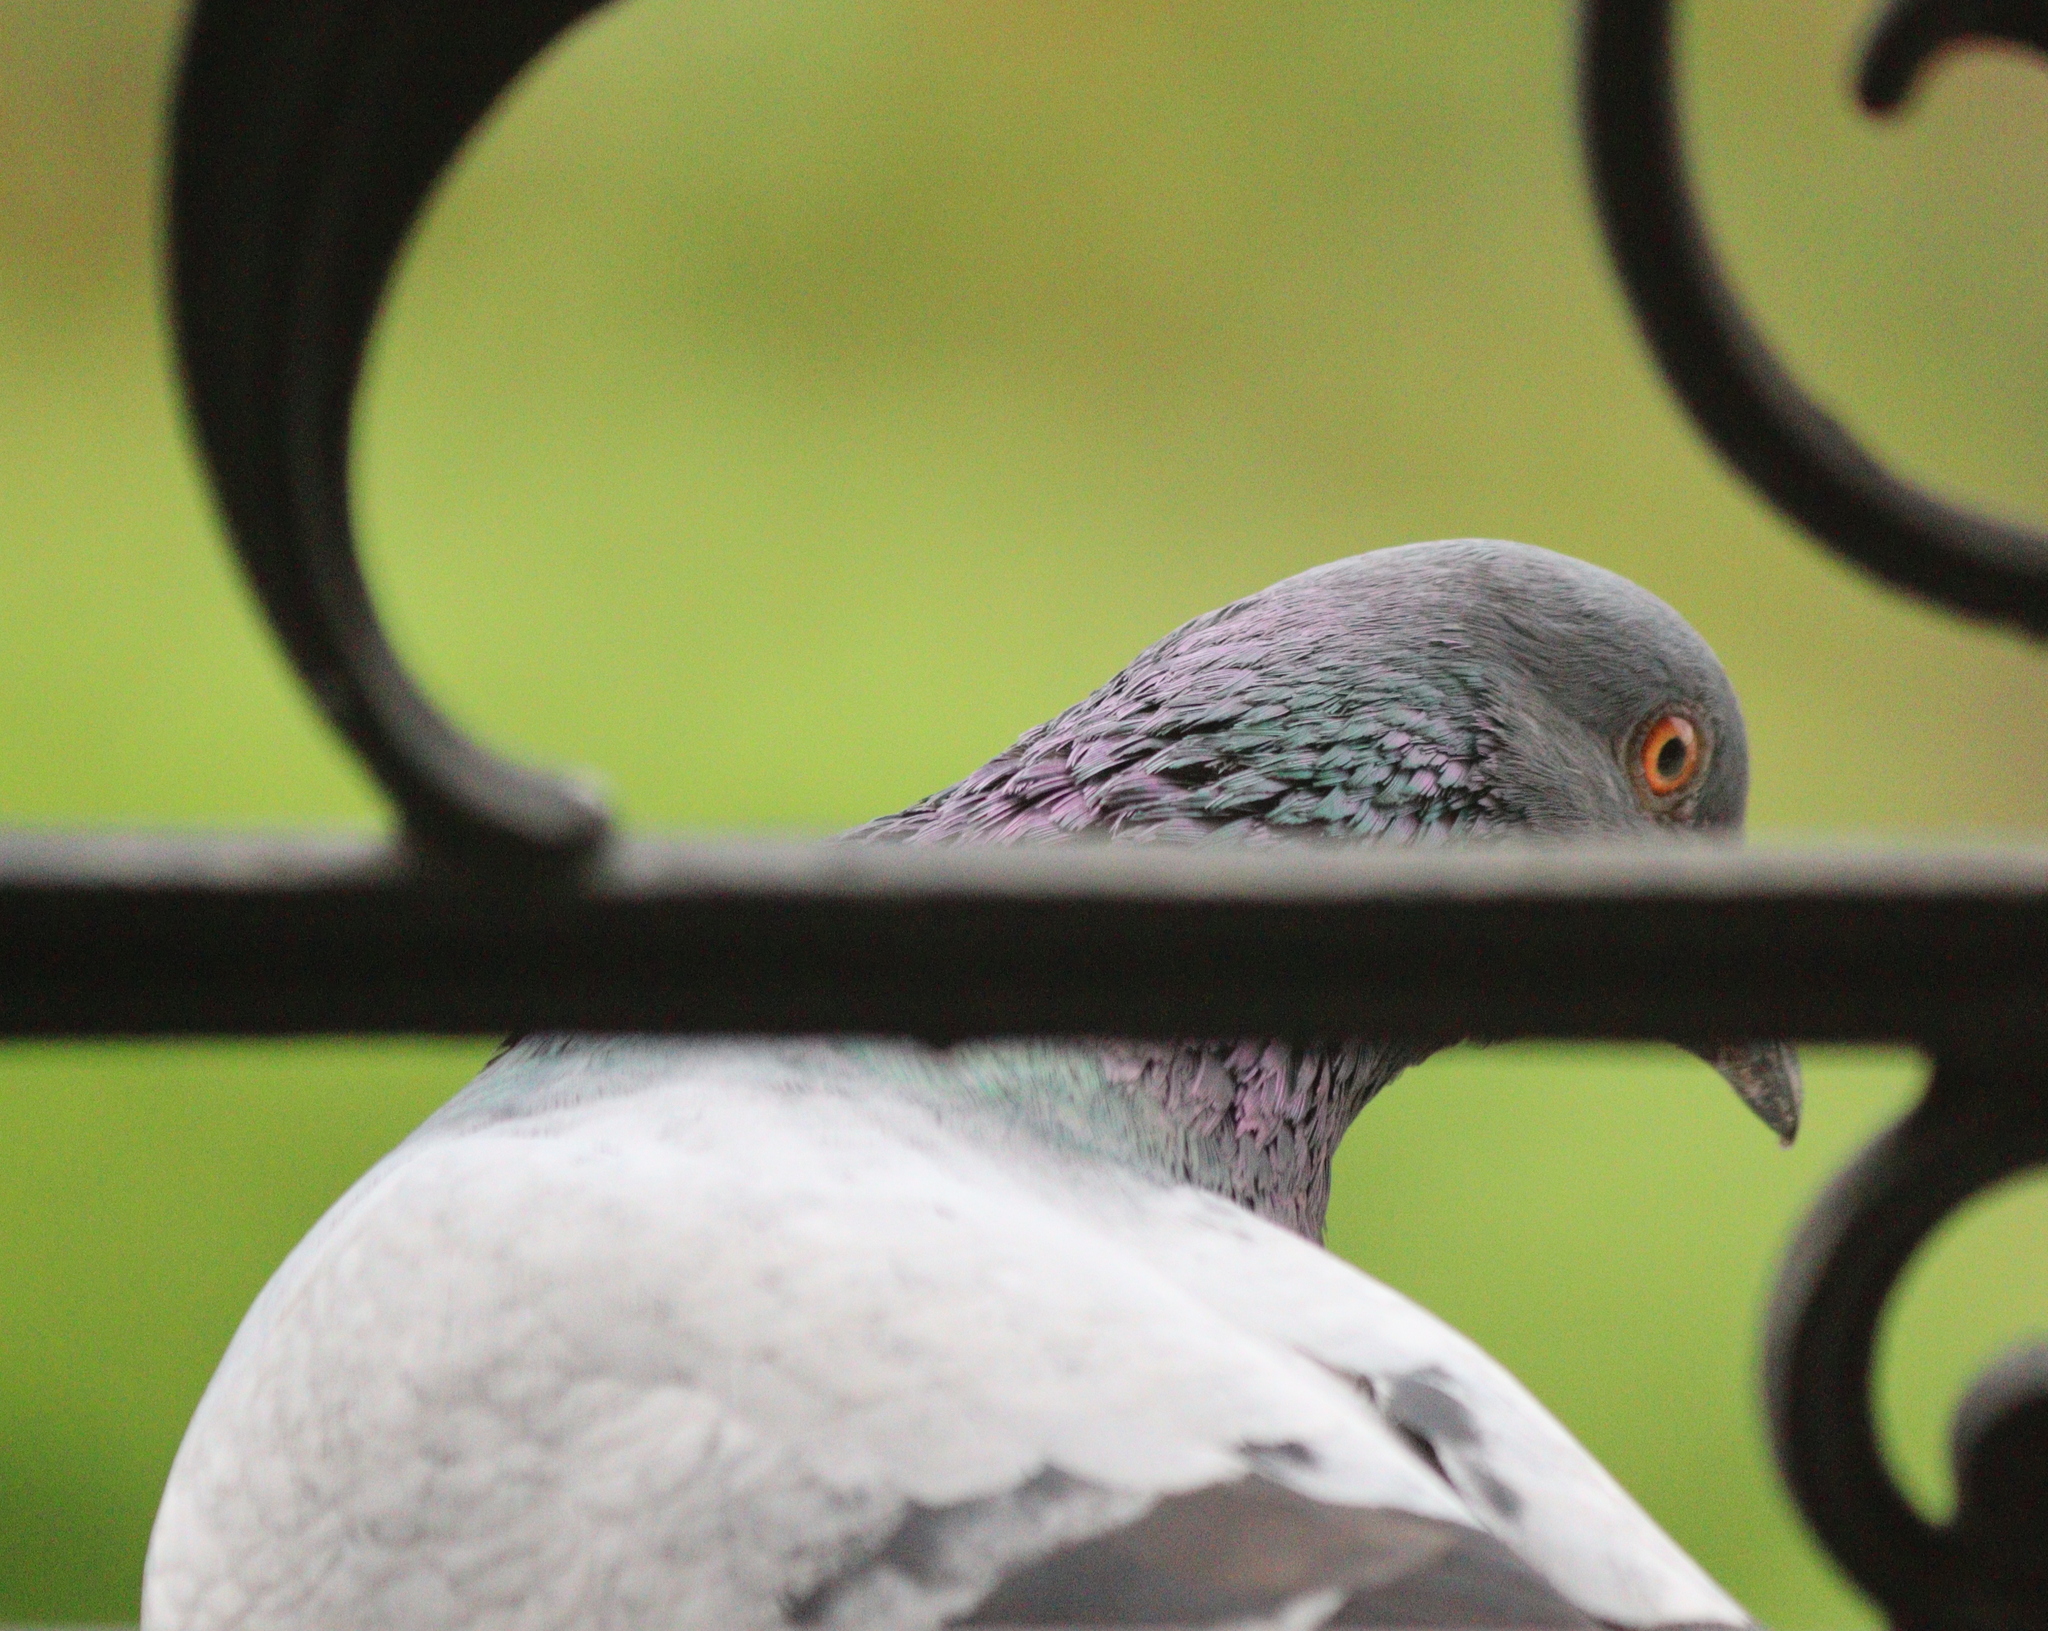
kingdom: Animalia
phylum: Chordata
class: Aves
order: Columbiformes
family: Columbidae
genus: Columba
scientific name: Columba livia
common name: Rock pigeon
